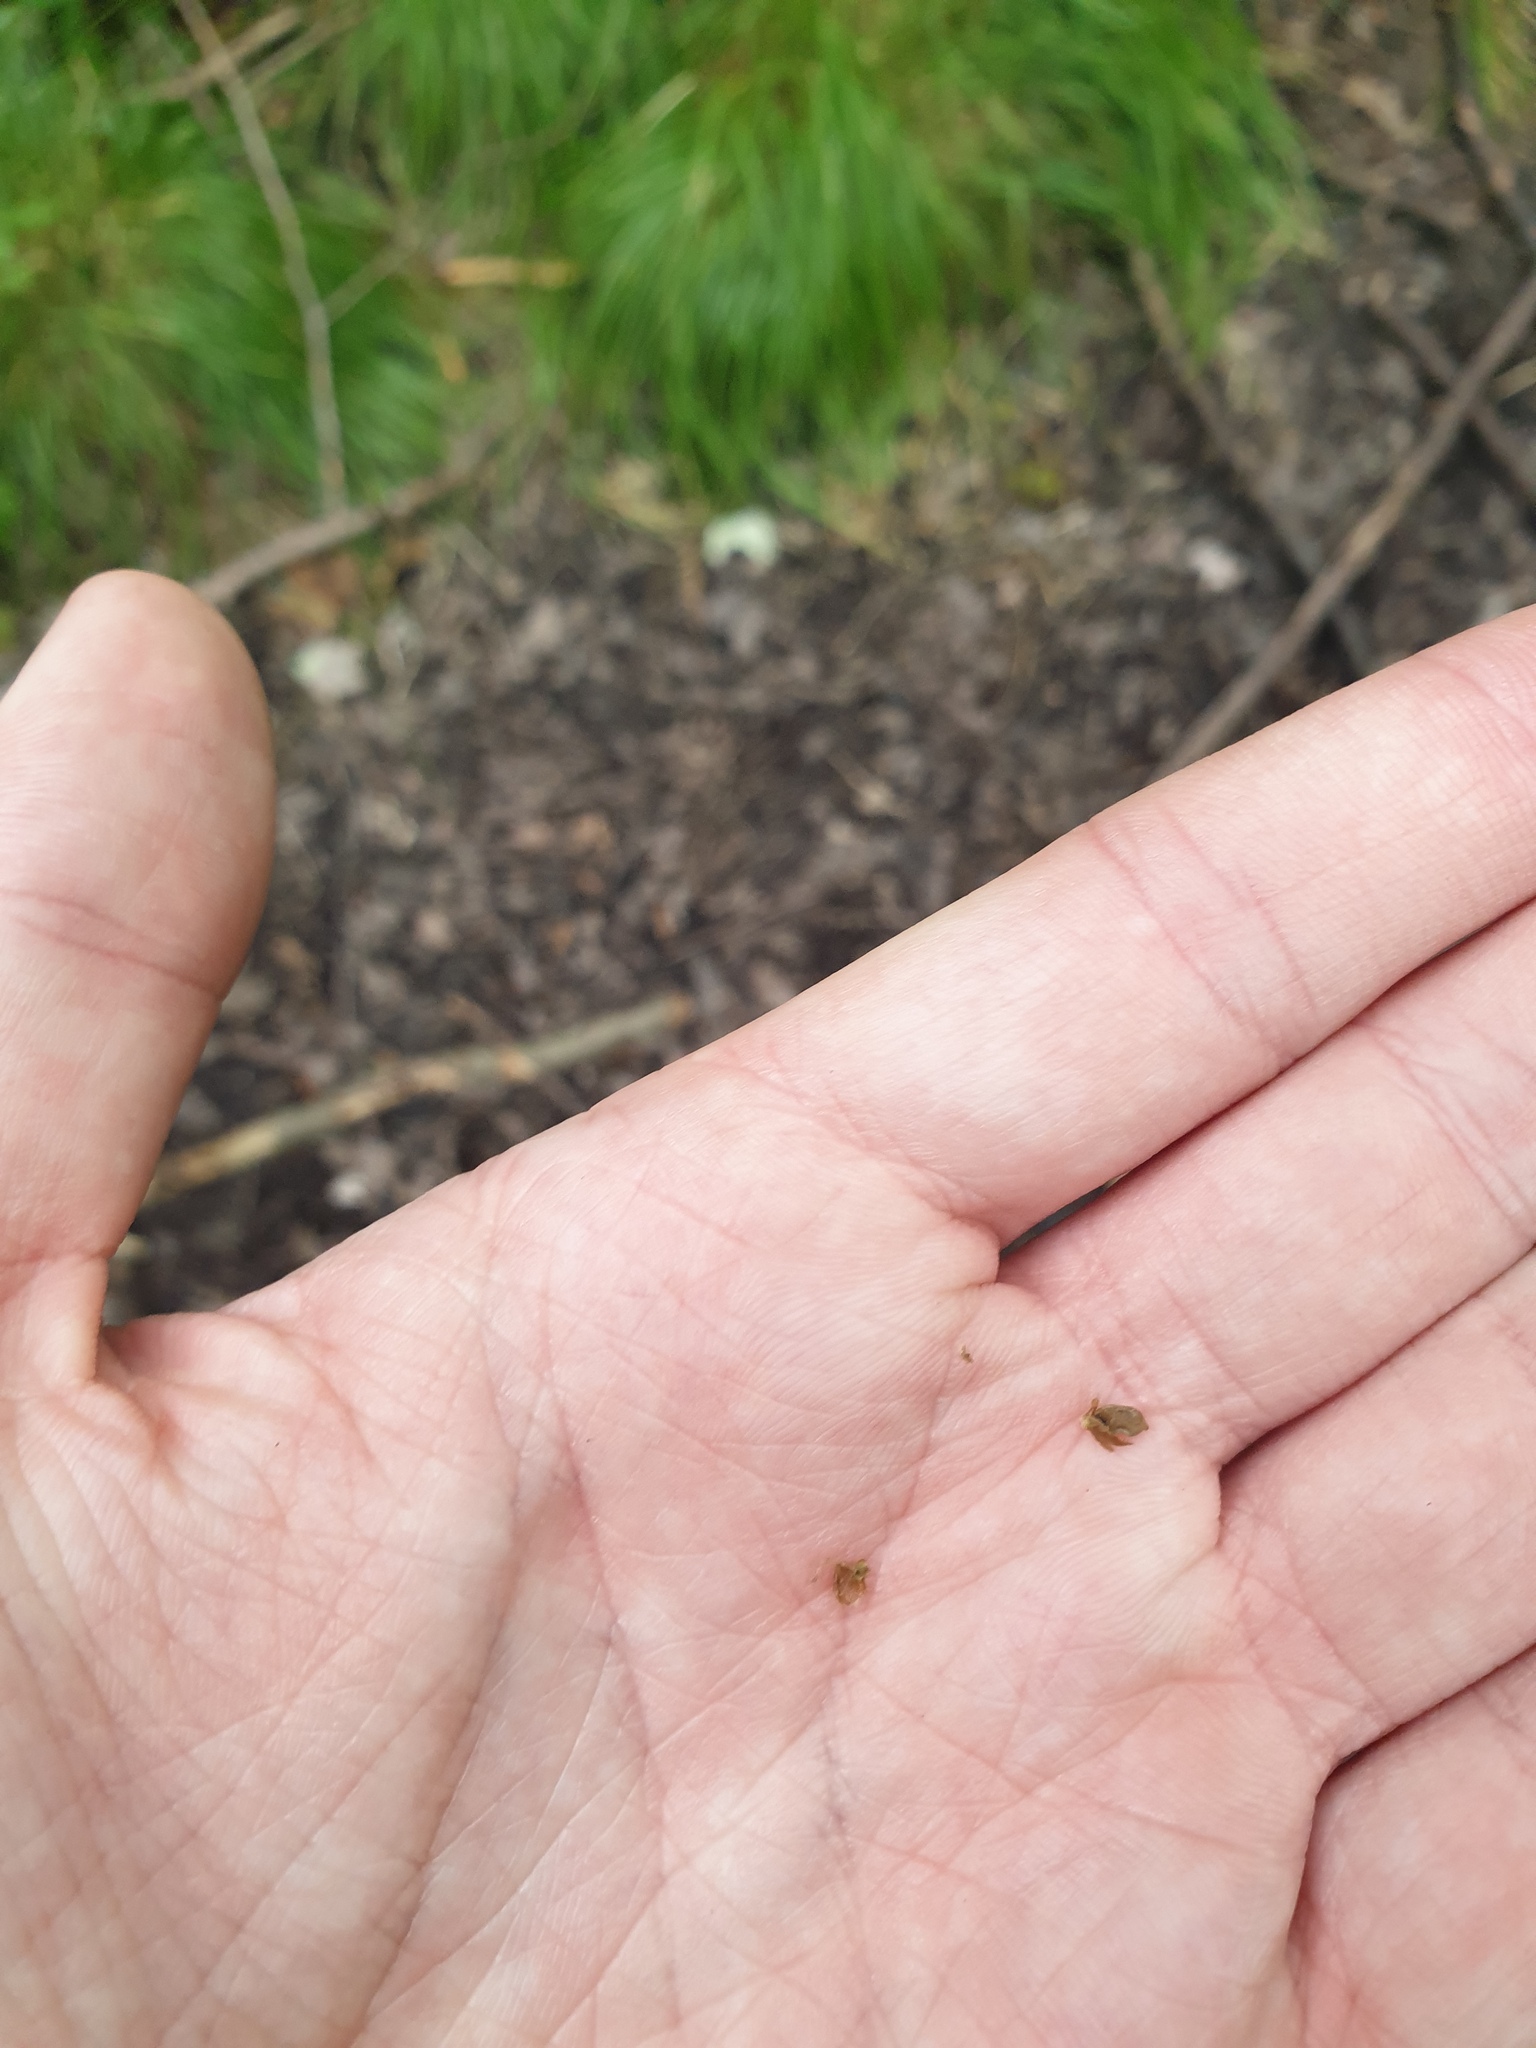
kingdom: Plantae
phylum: Tracheophyta
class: Liliopsida
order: Poales
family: Cyperaceae
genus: Carex
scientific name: Carex tuckermanii
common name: Tuckerman's sedge
